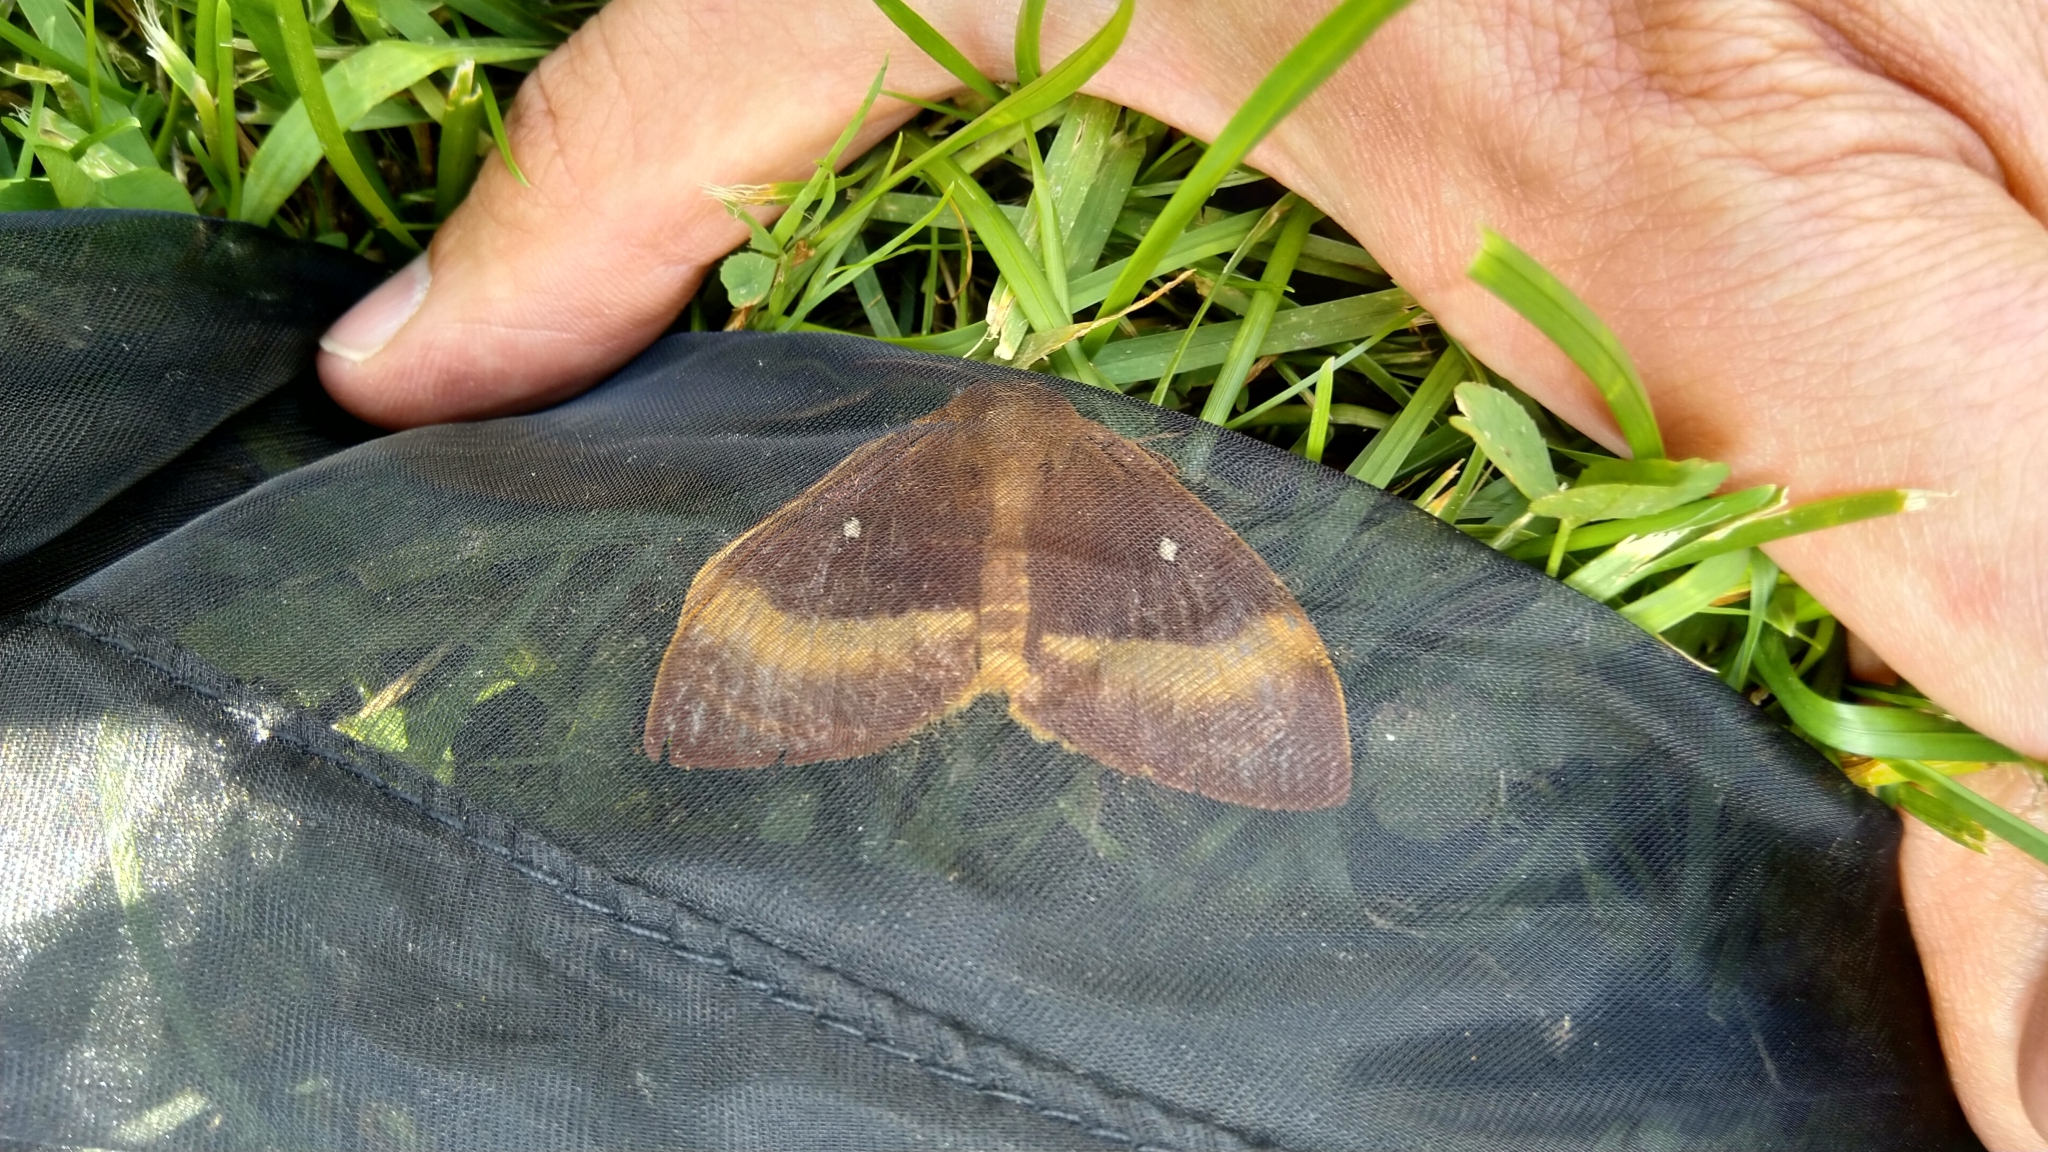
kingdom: Animalia
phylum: Arthropoda
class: Insecta
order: Lepidoptera
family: Lasiocampidae
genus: Lasiocampa
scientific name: Lasiocampa quercus
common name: Oak eggar
